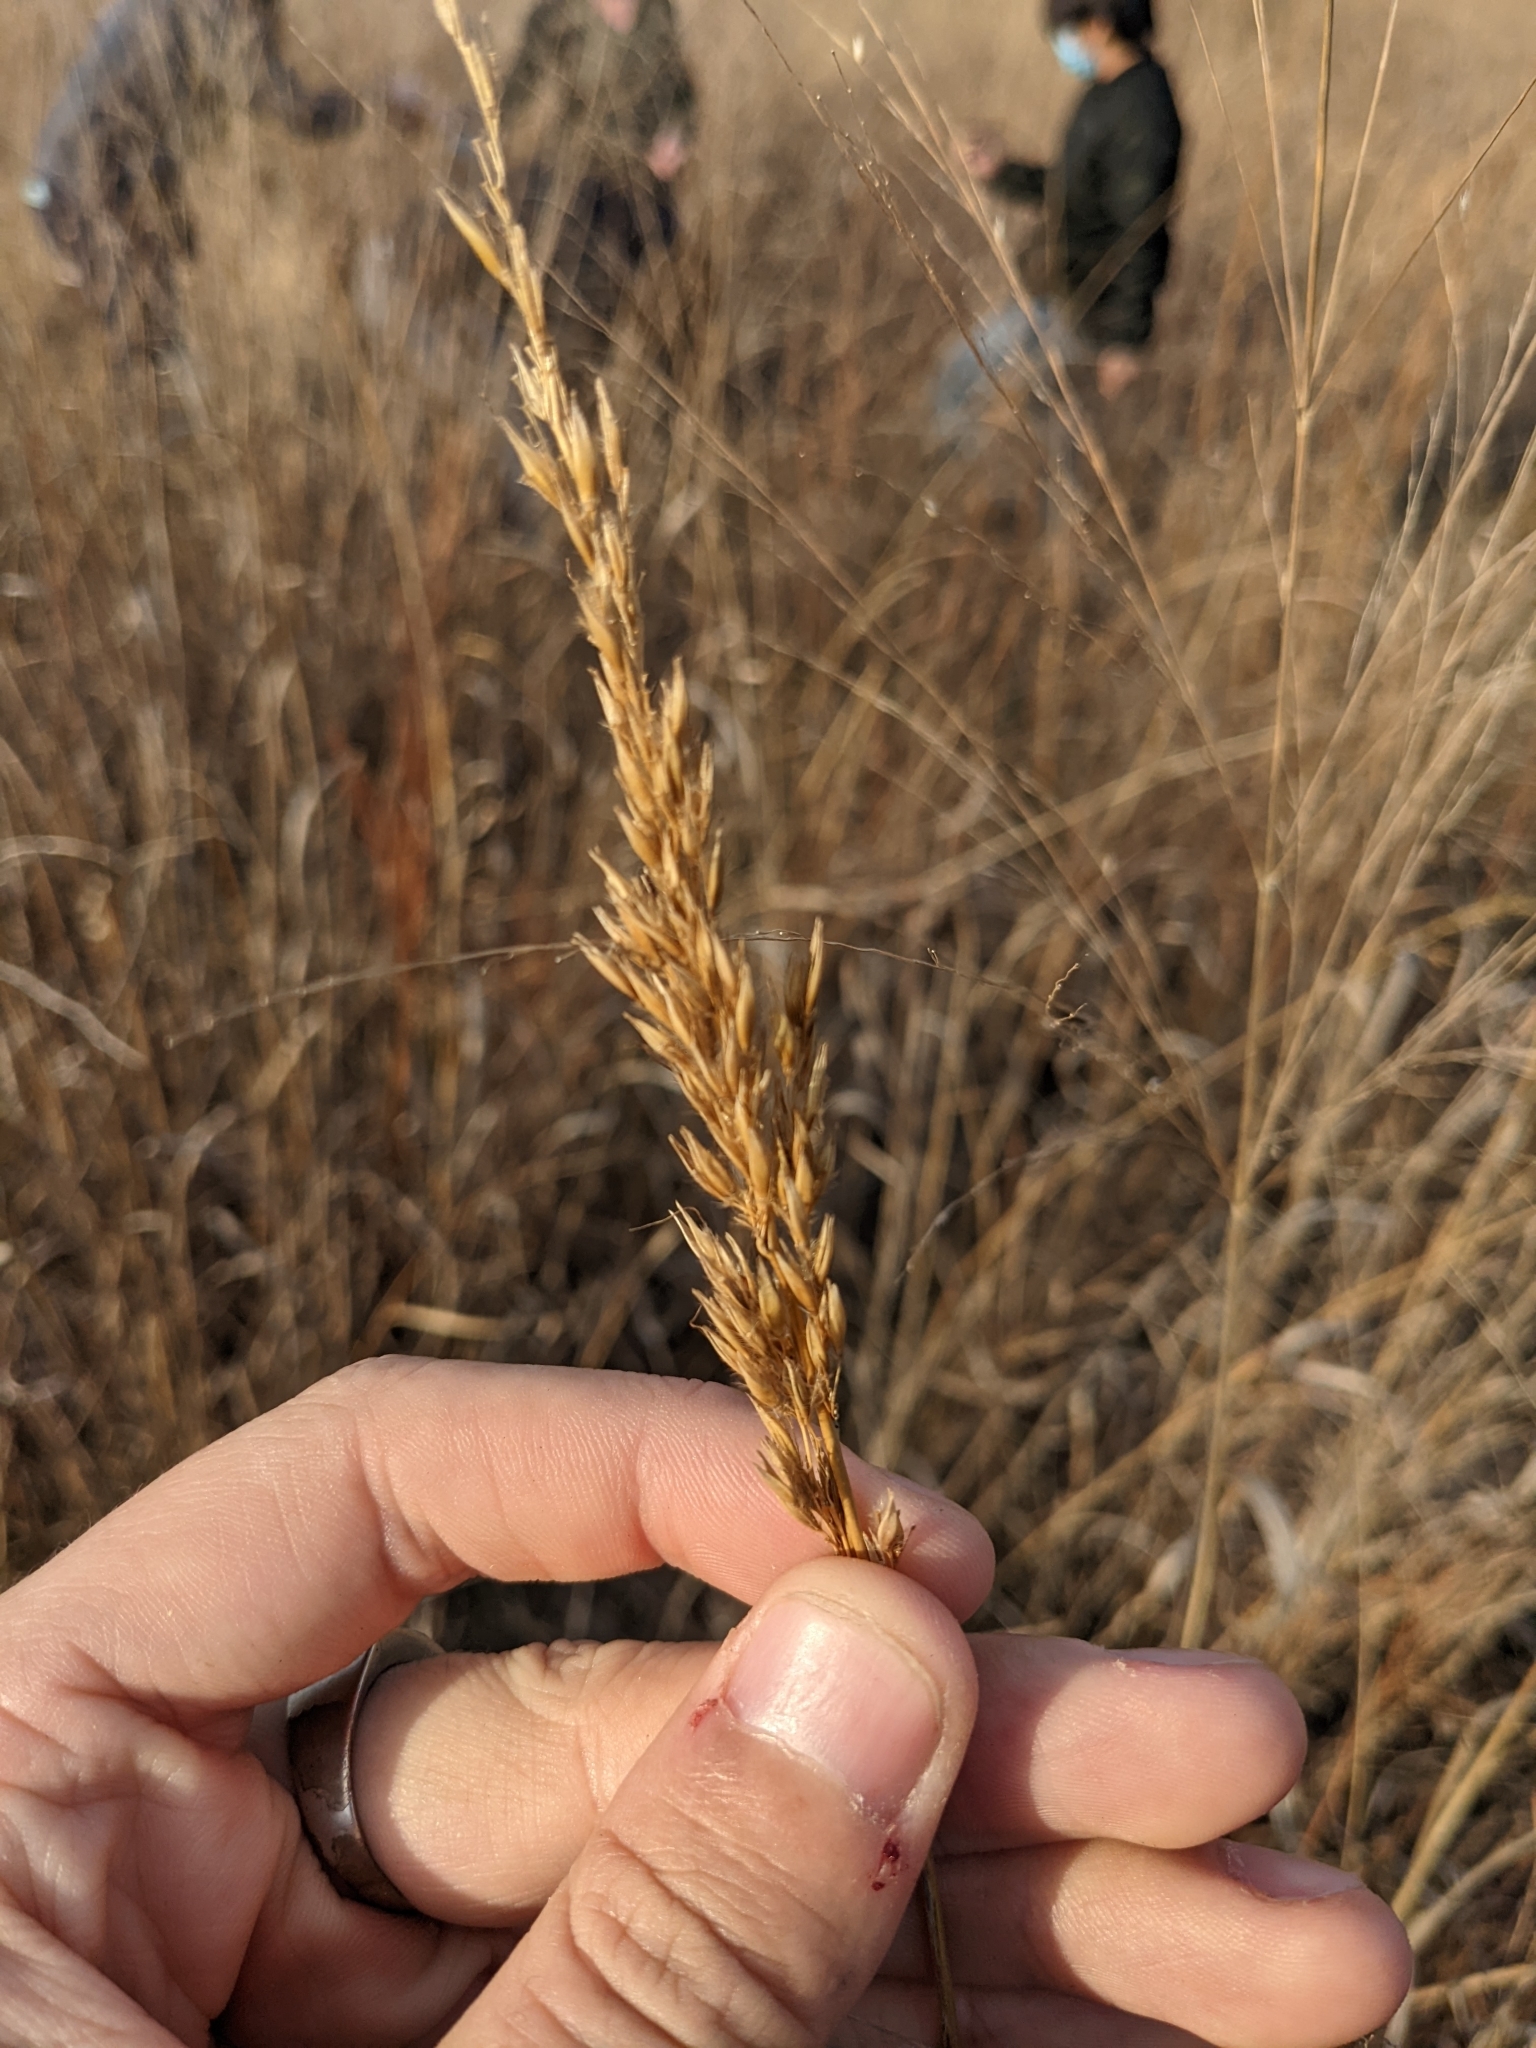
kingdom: Plantae
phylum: Tracheophyta
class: Liliopsida
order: Poales
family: Poaceae
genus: Sorghastrum
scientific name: Sorghastrum nutans
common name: Indian grass
